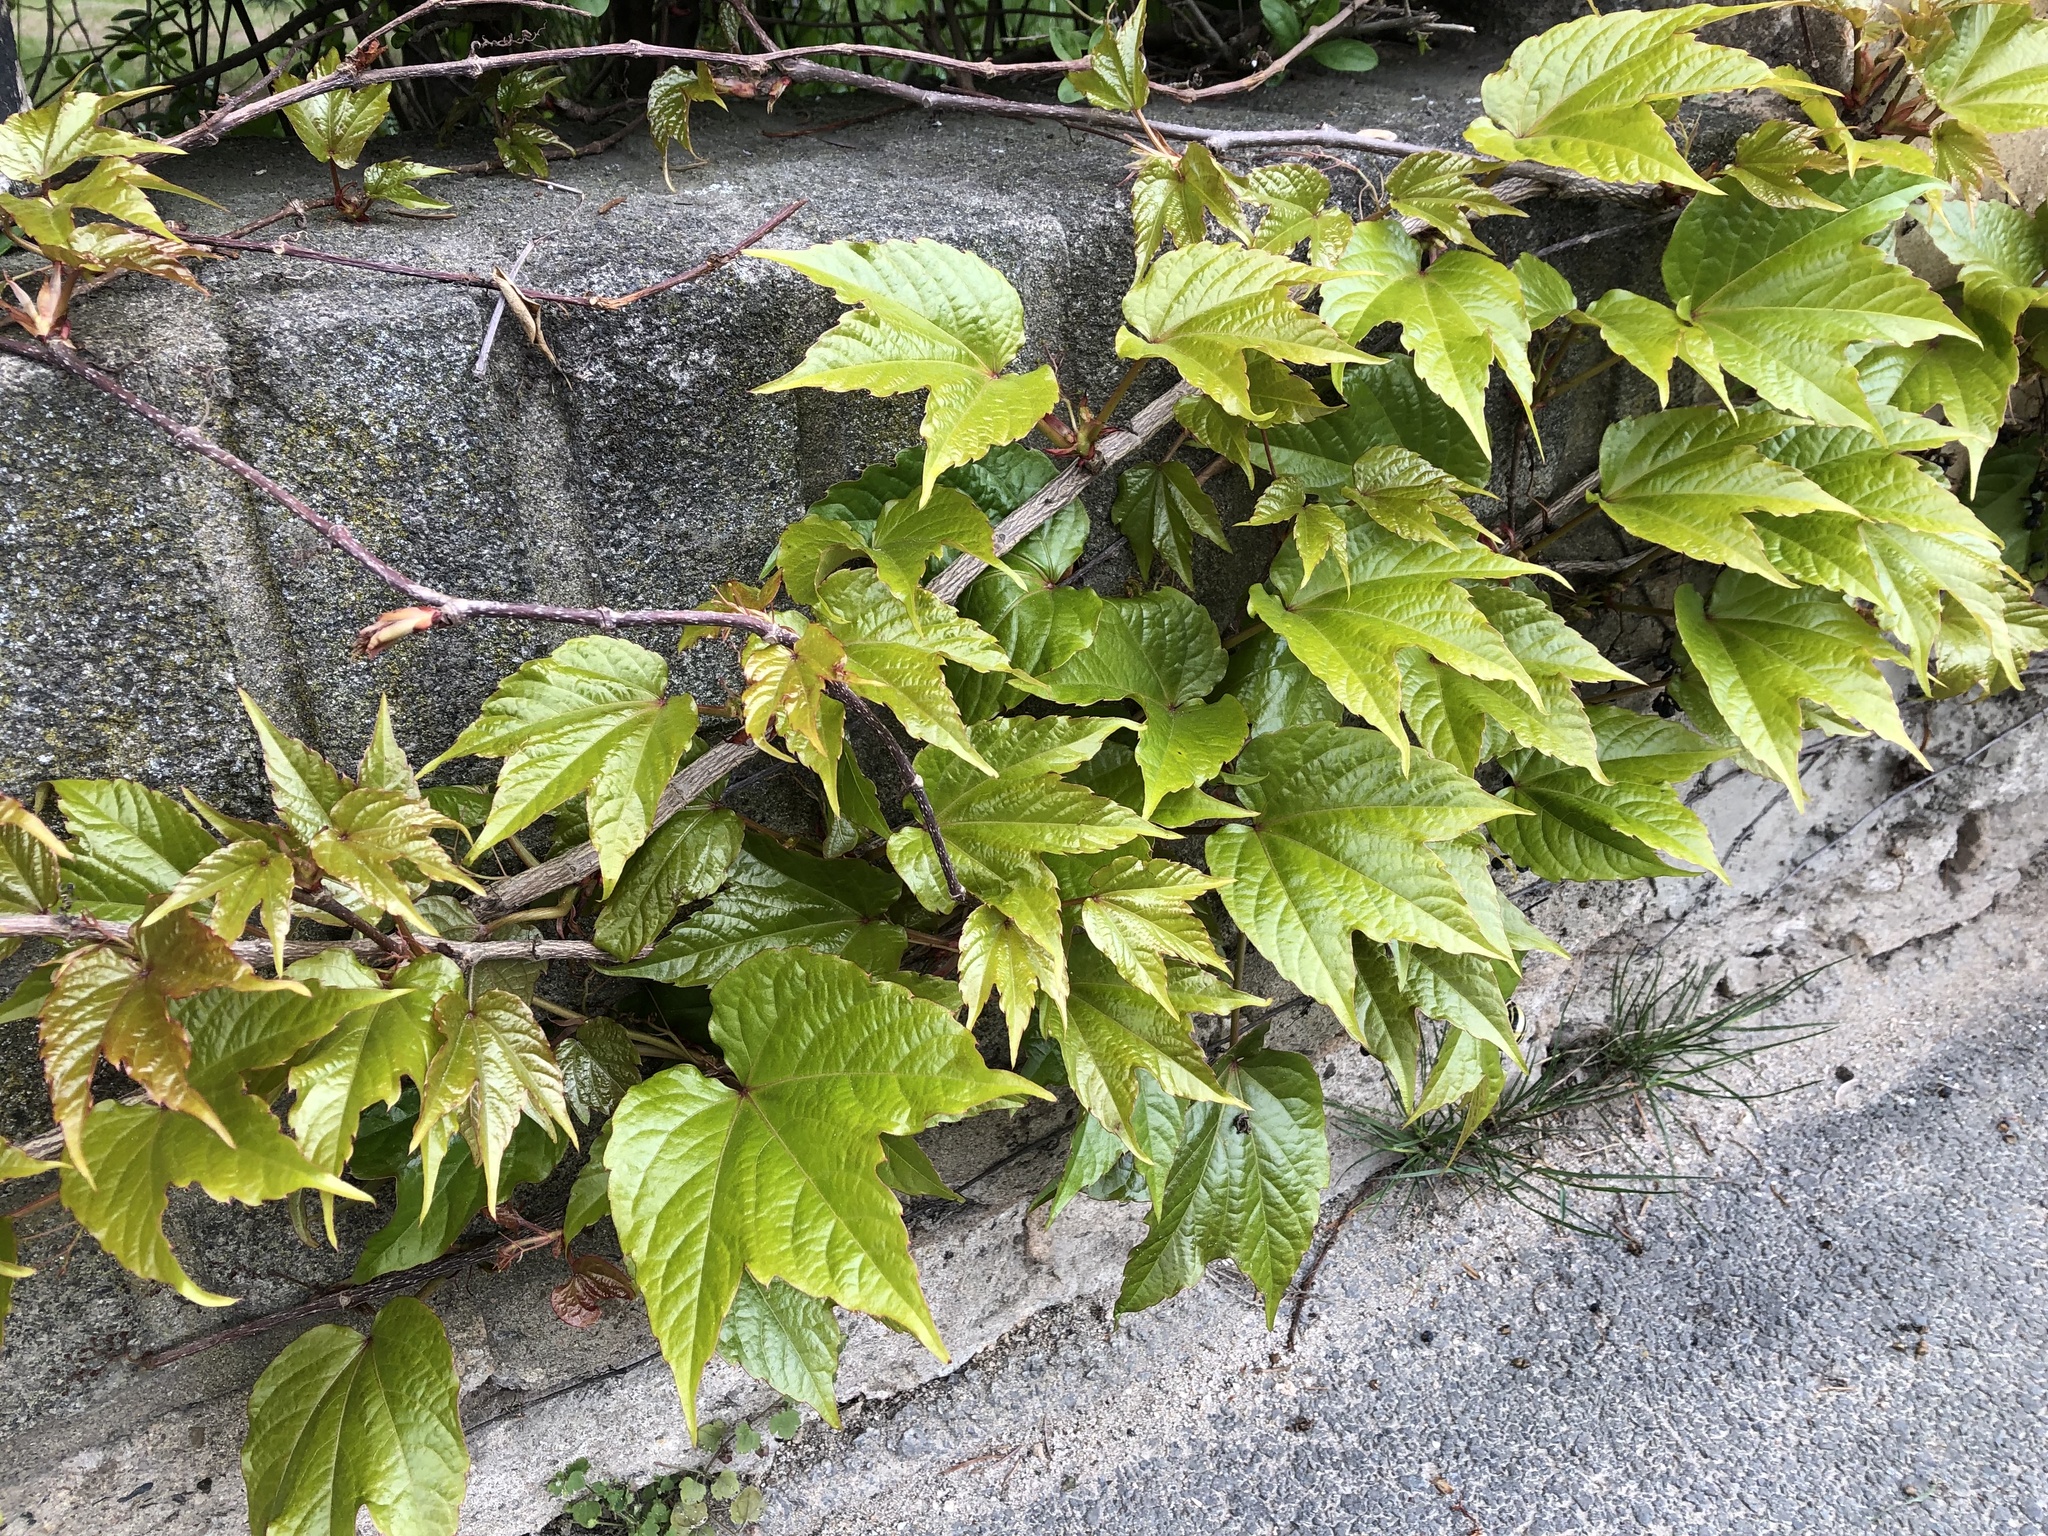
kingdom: Plantae
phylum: Tracheophyta
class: Magnoliopsida
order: Vitales
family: Vitaceae
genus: Parthenocissus
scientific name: Parthenocissus tricuspidata
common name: Boston ivy
